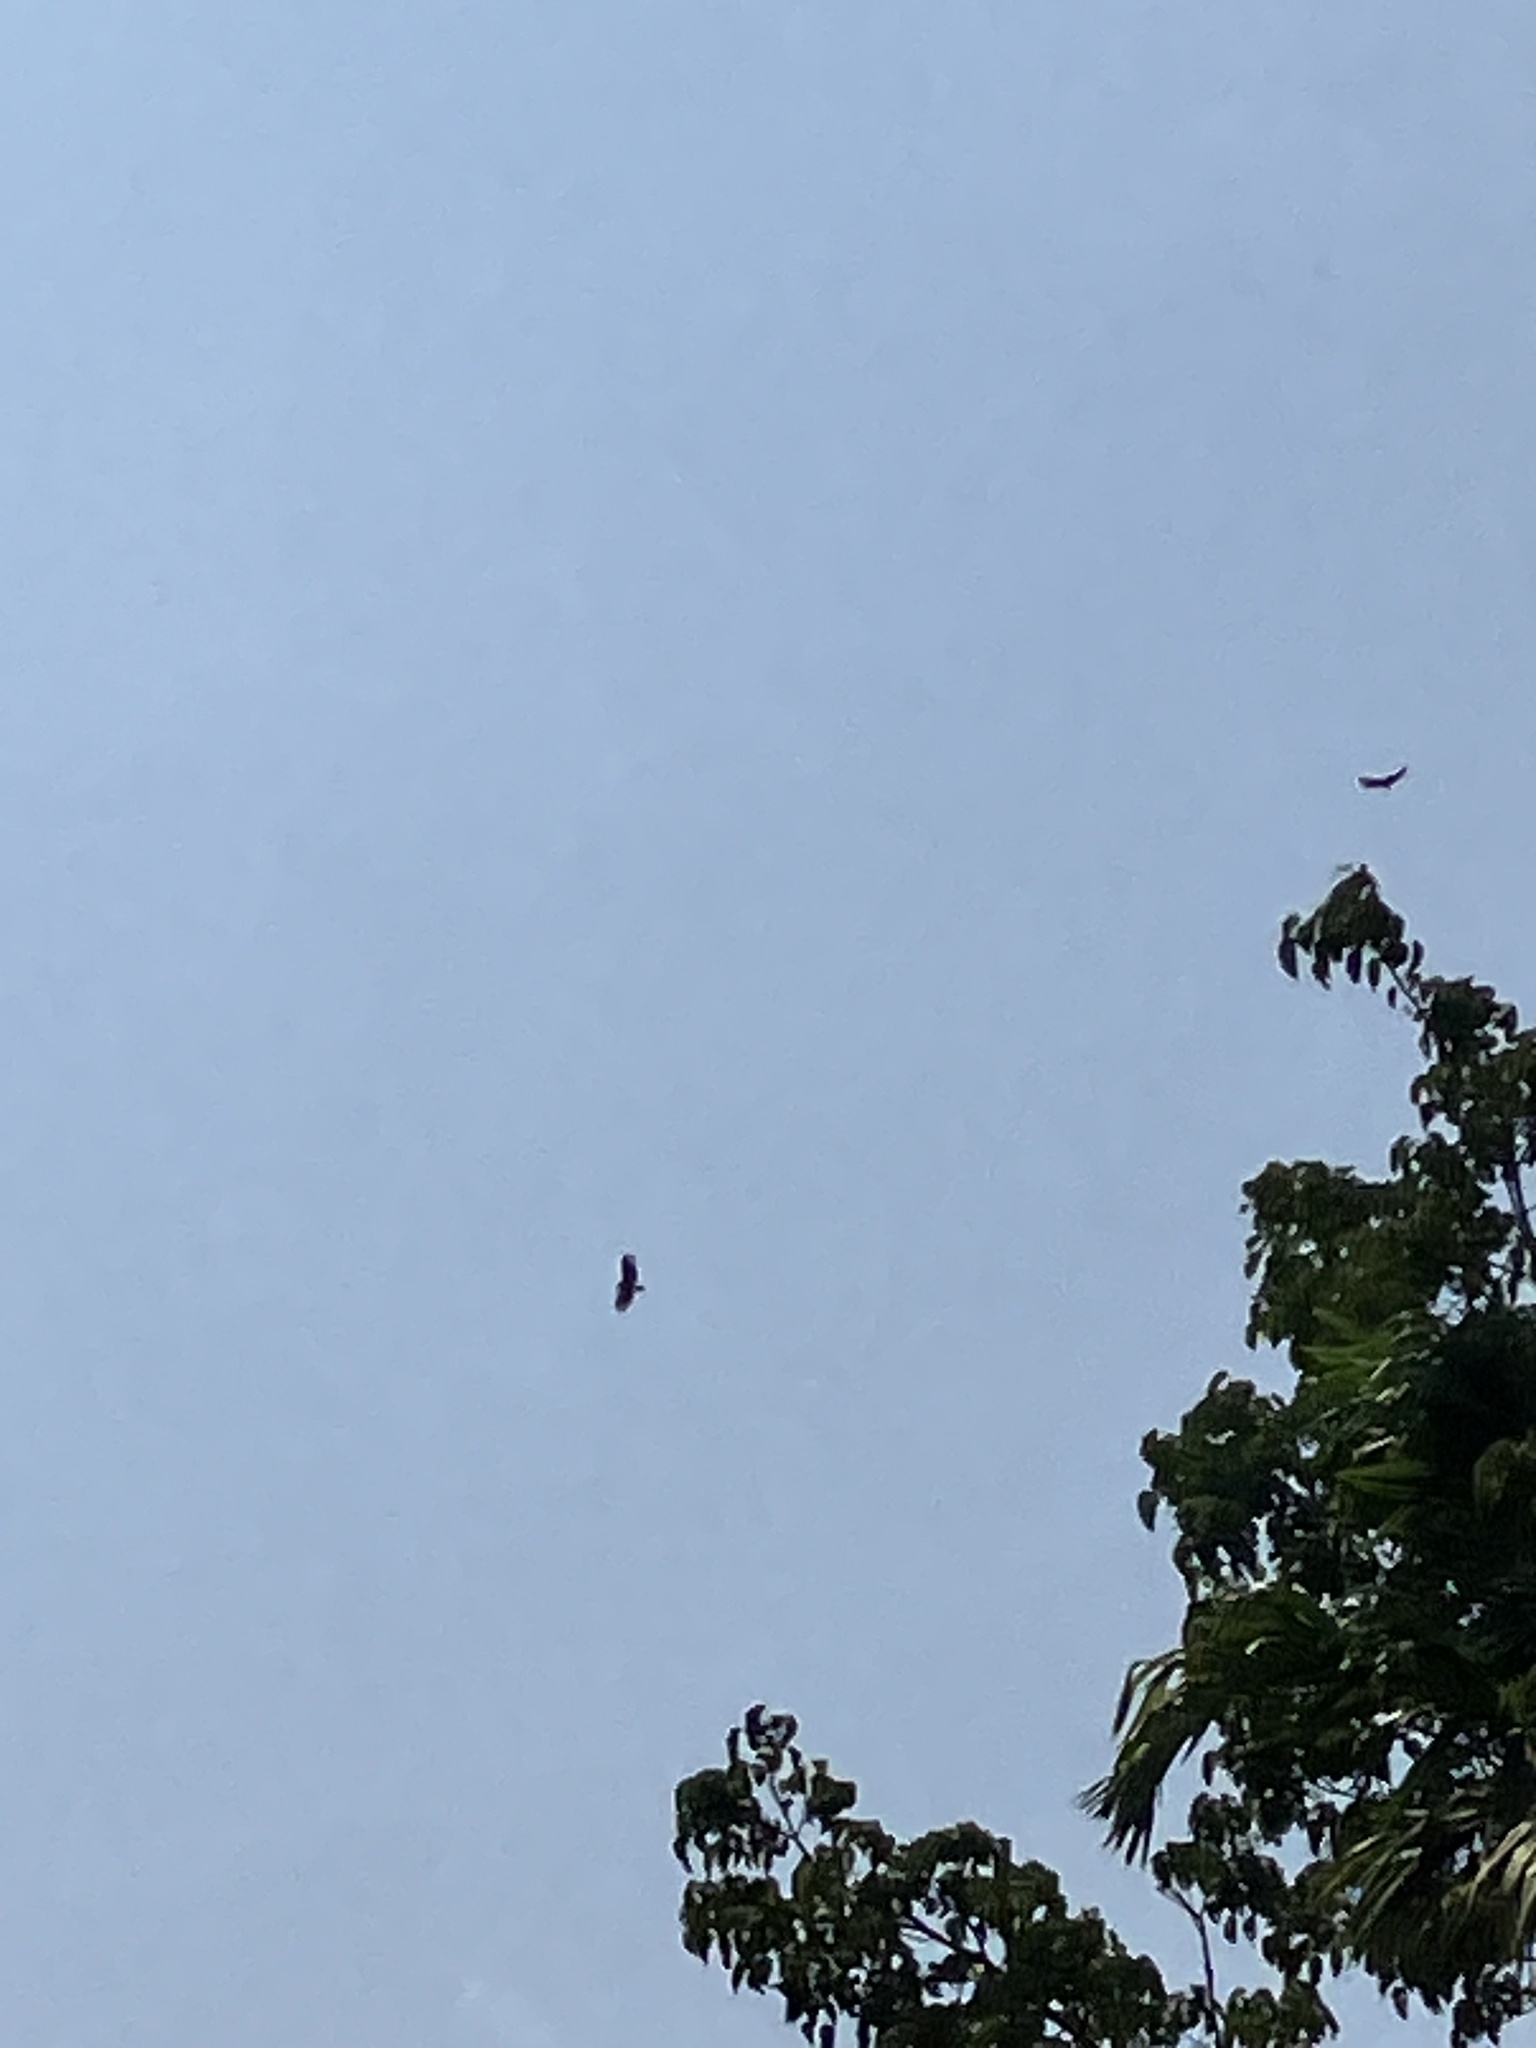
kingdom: Animalia
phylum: Chordata
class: Aves
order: Accipitriformes
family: Accipitridae
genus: Spilornis
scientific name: Spilornis cheela
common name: Crested serpent eagle
